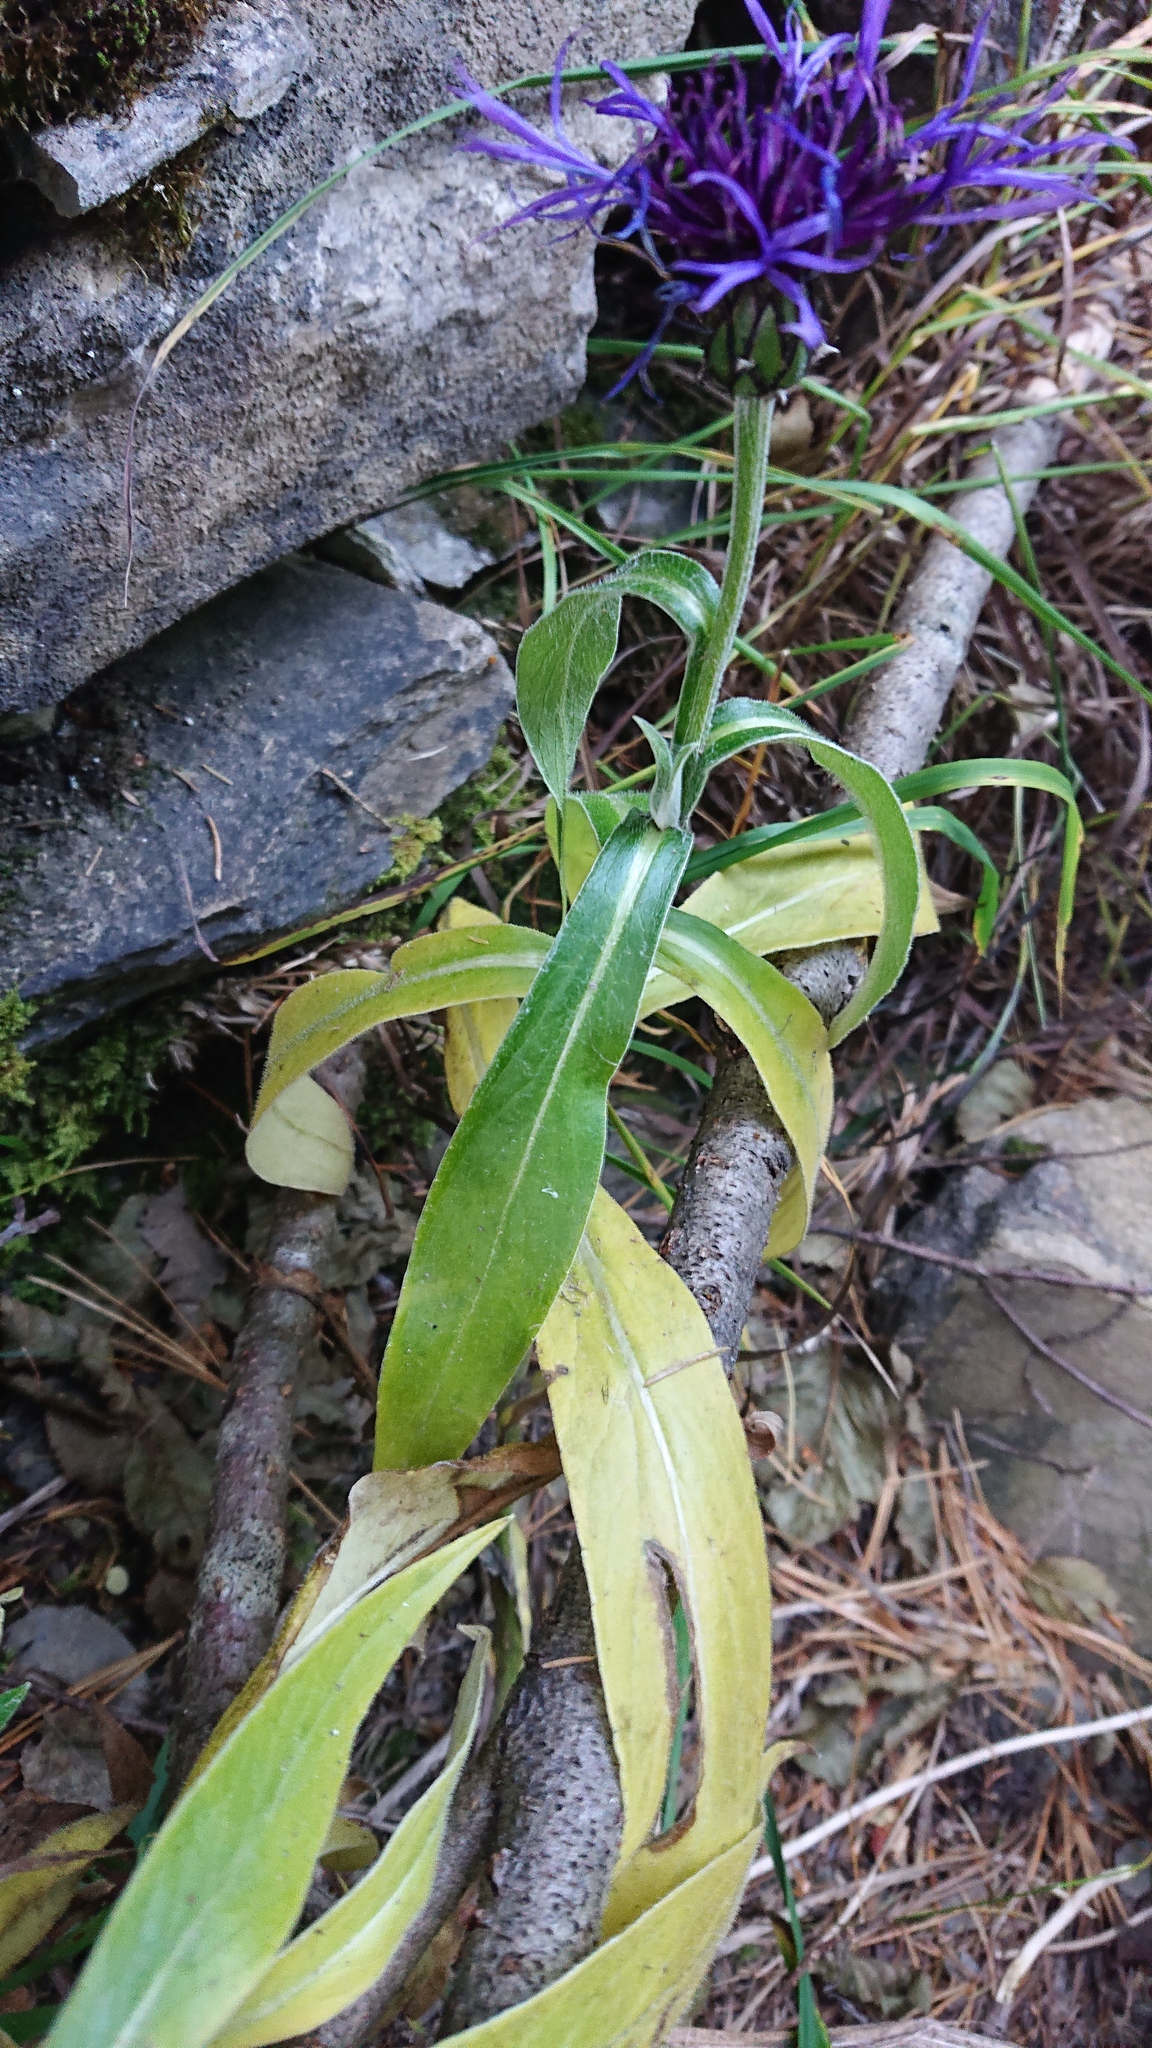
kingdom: Plantae
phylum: Tracheophyta
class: Magnoliopsida
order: Asterales
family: Asteraceae
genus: Centaurea
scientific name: Centaurea montana
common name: Perennial cornflower
